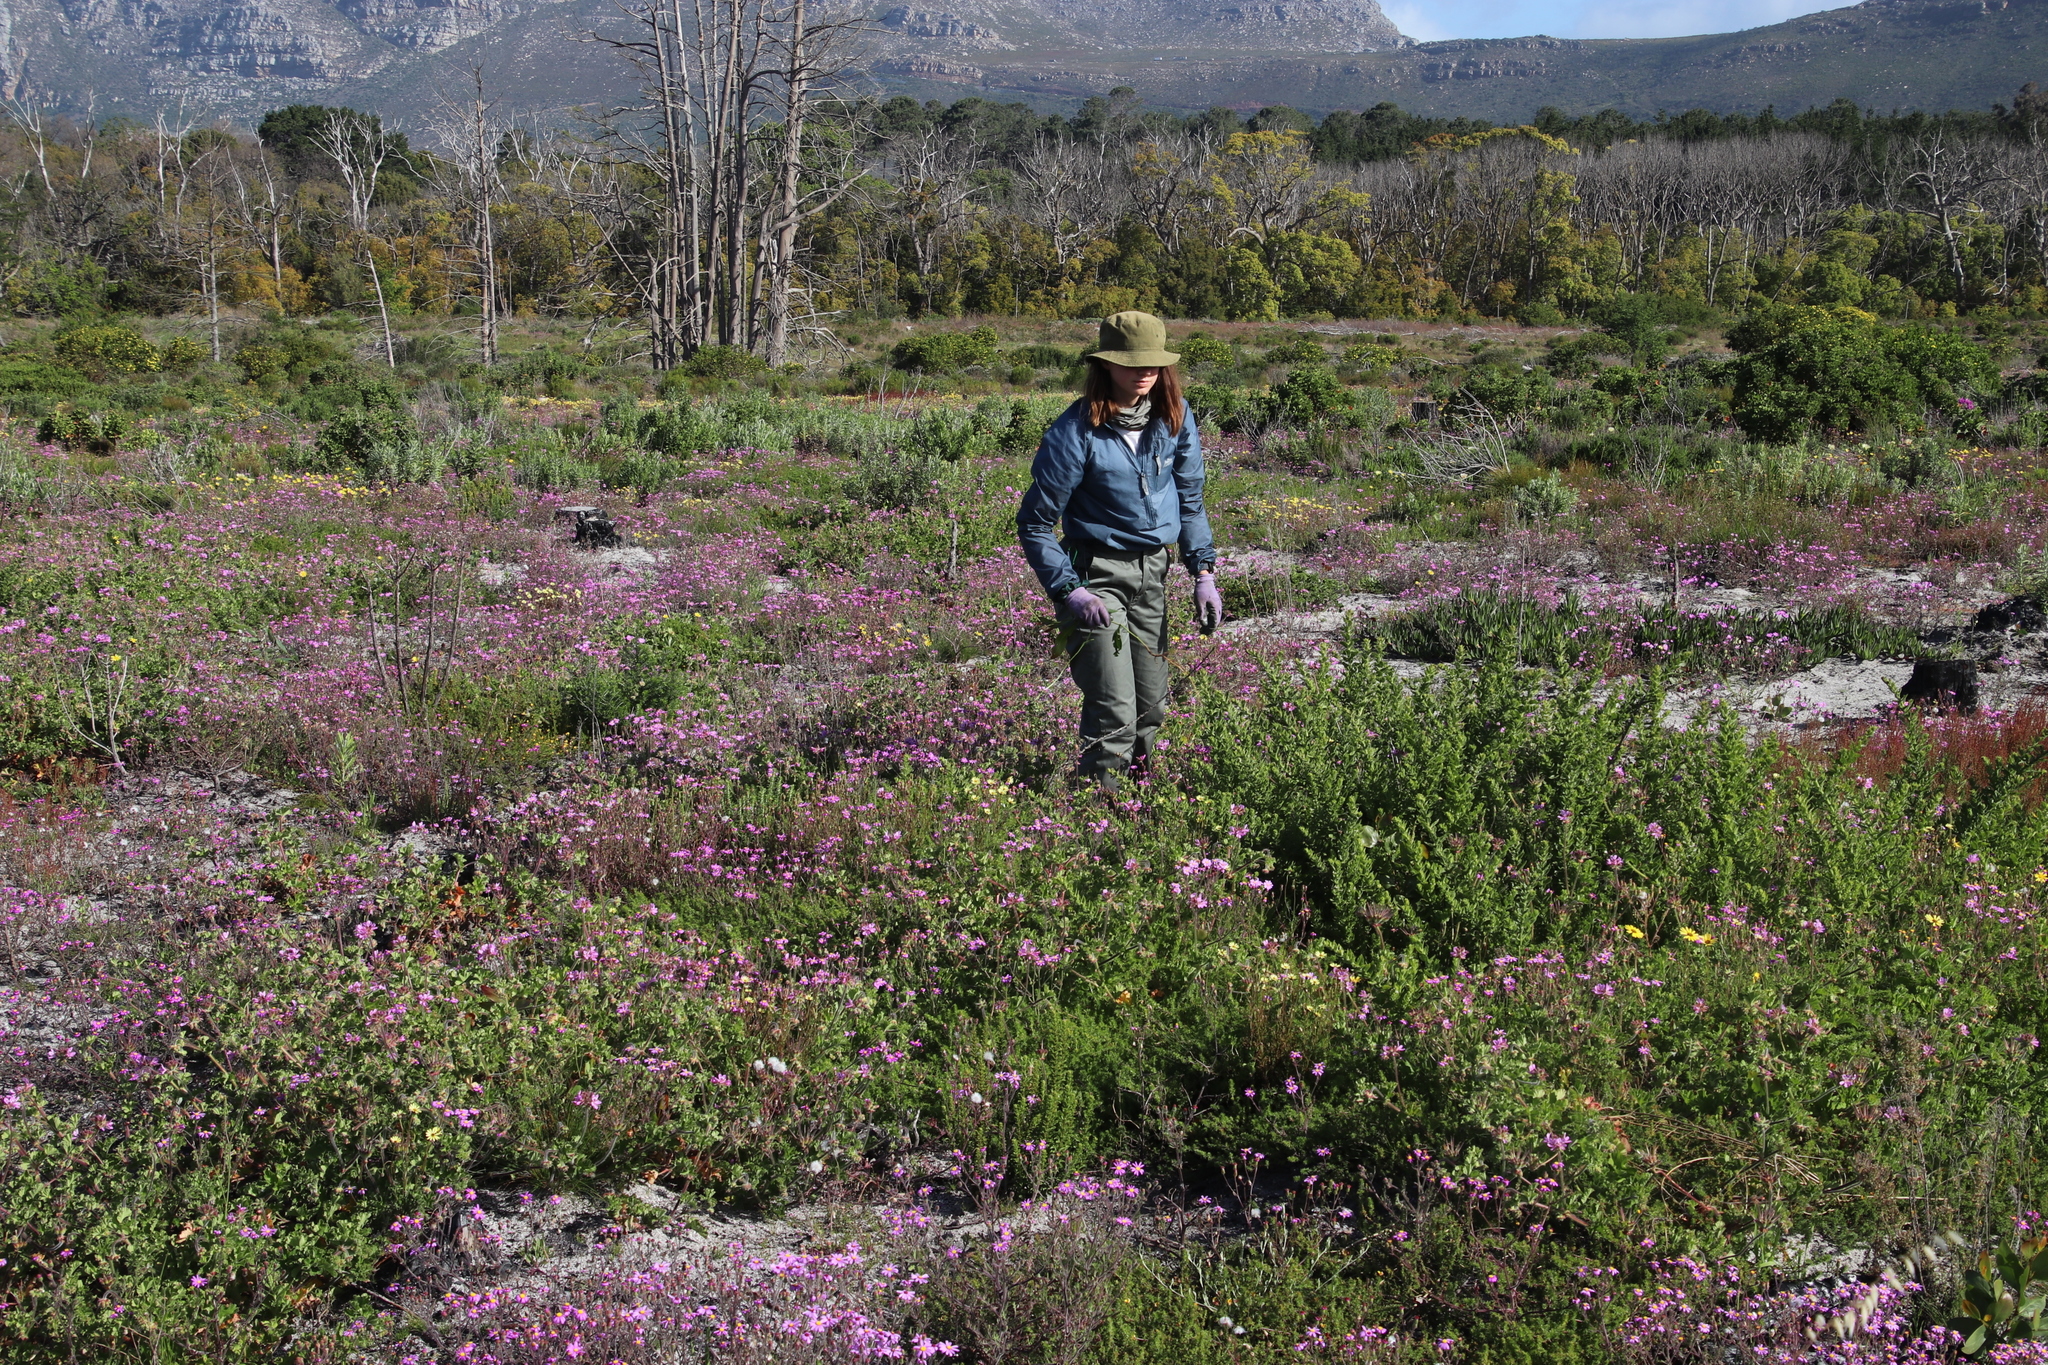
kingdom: Plantae
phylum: Tracheophyta
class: Magnoliopsida
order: Lamiales
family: Scrophulariaceae
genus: Oftia
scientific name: Oftia africana
